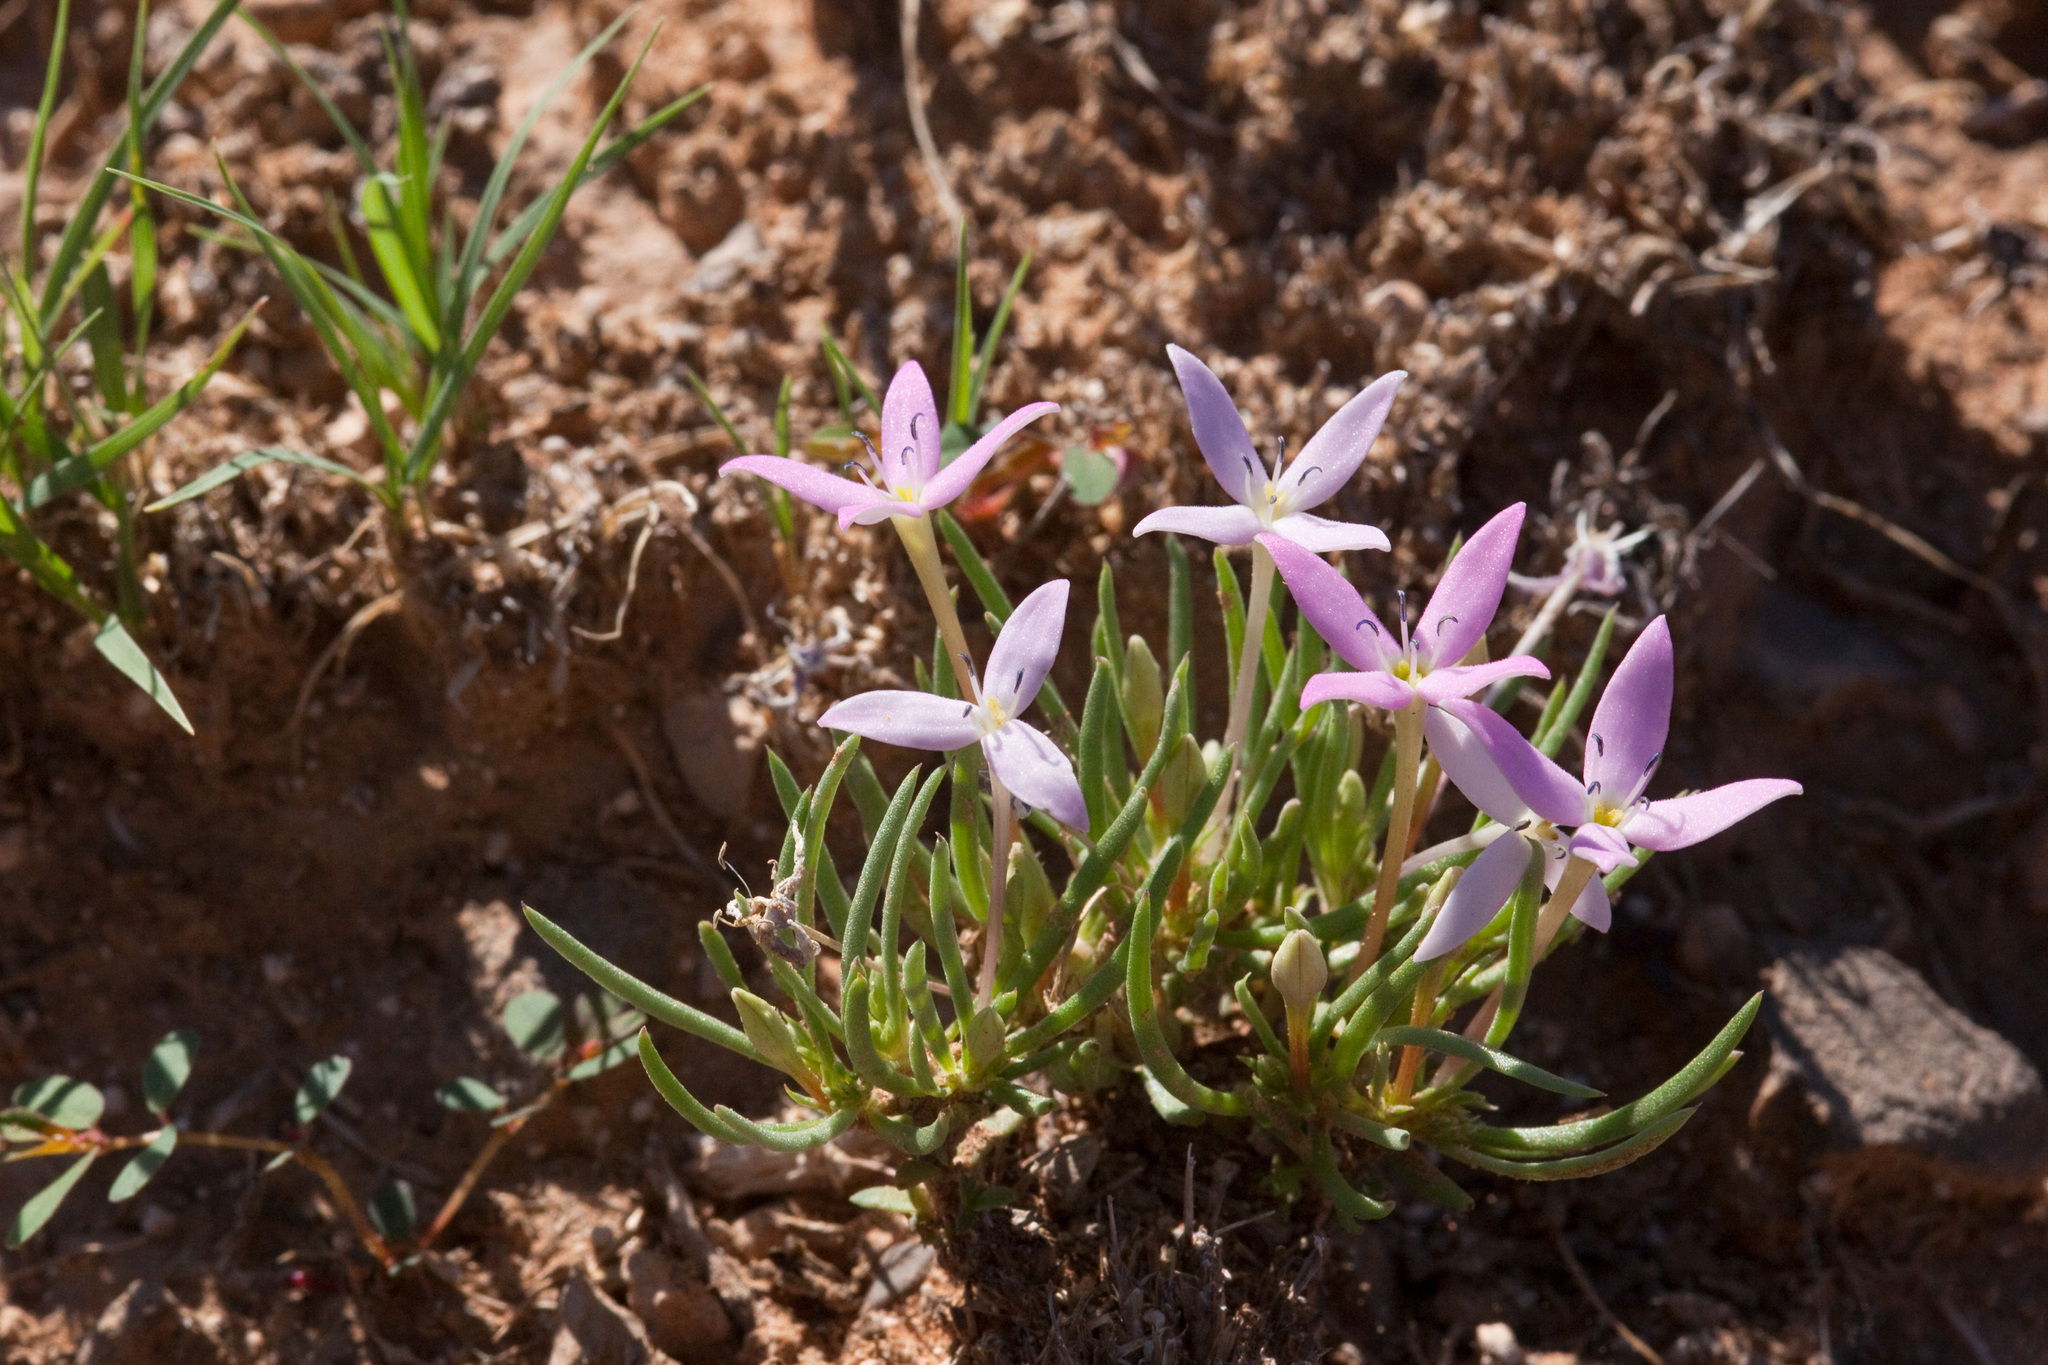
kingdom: Plantae
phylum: Tracheophyta
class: Magnoliopsida
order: Gentianales
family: Rubiaceae
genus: Houstonia
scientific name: Houstonia rubra
